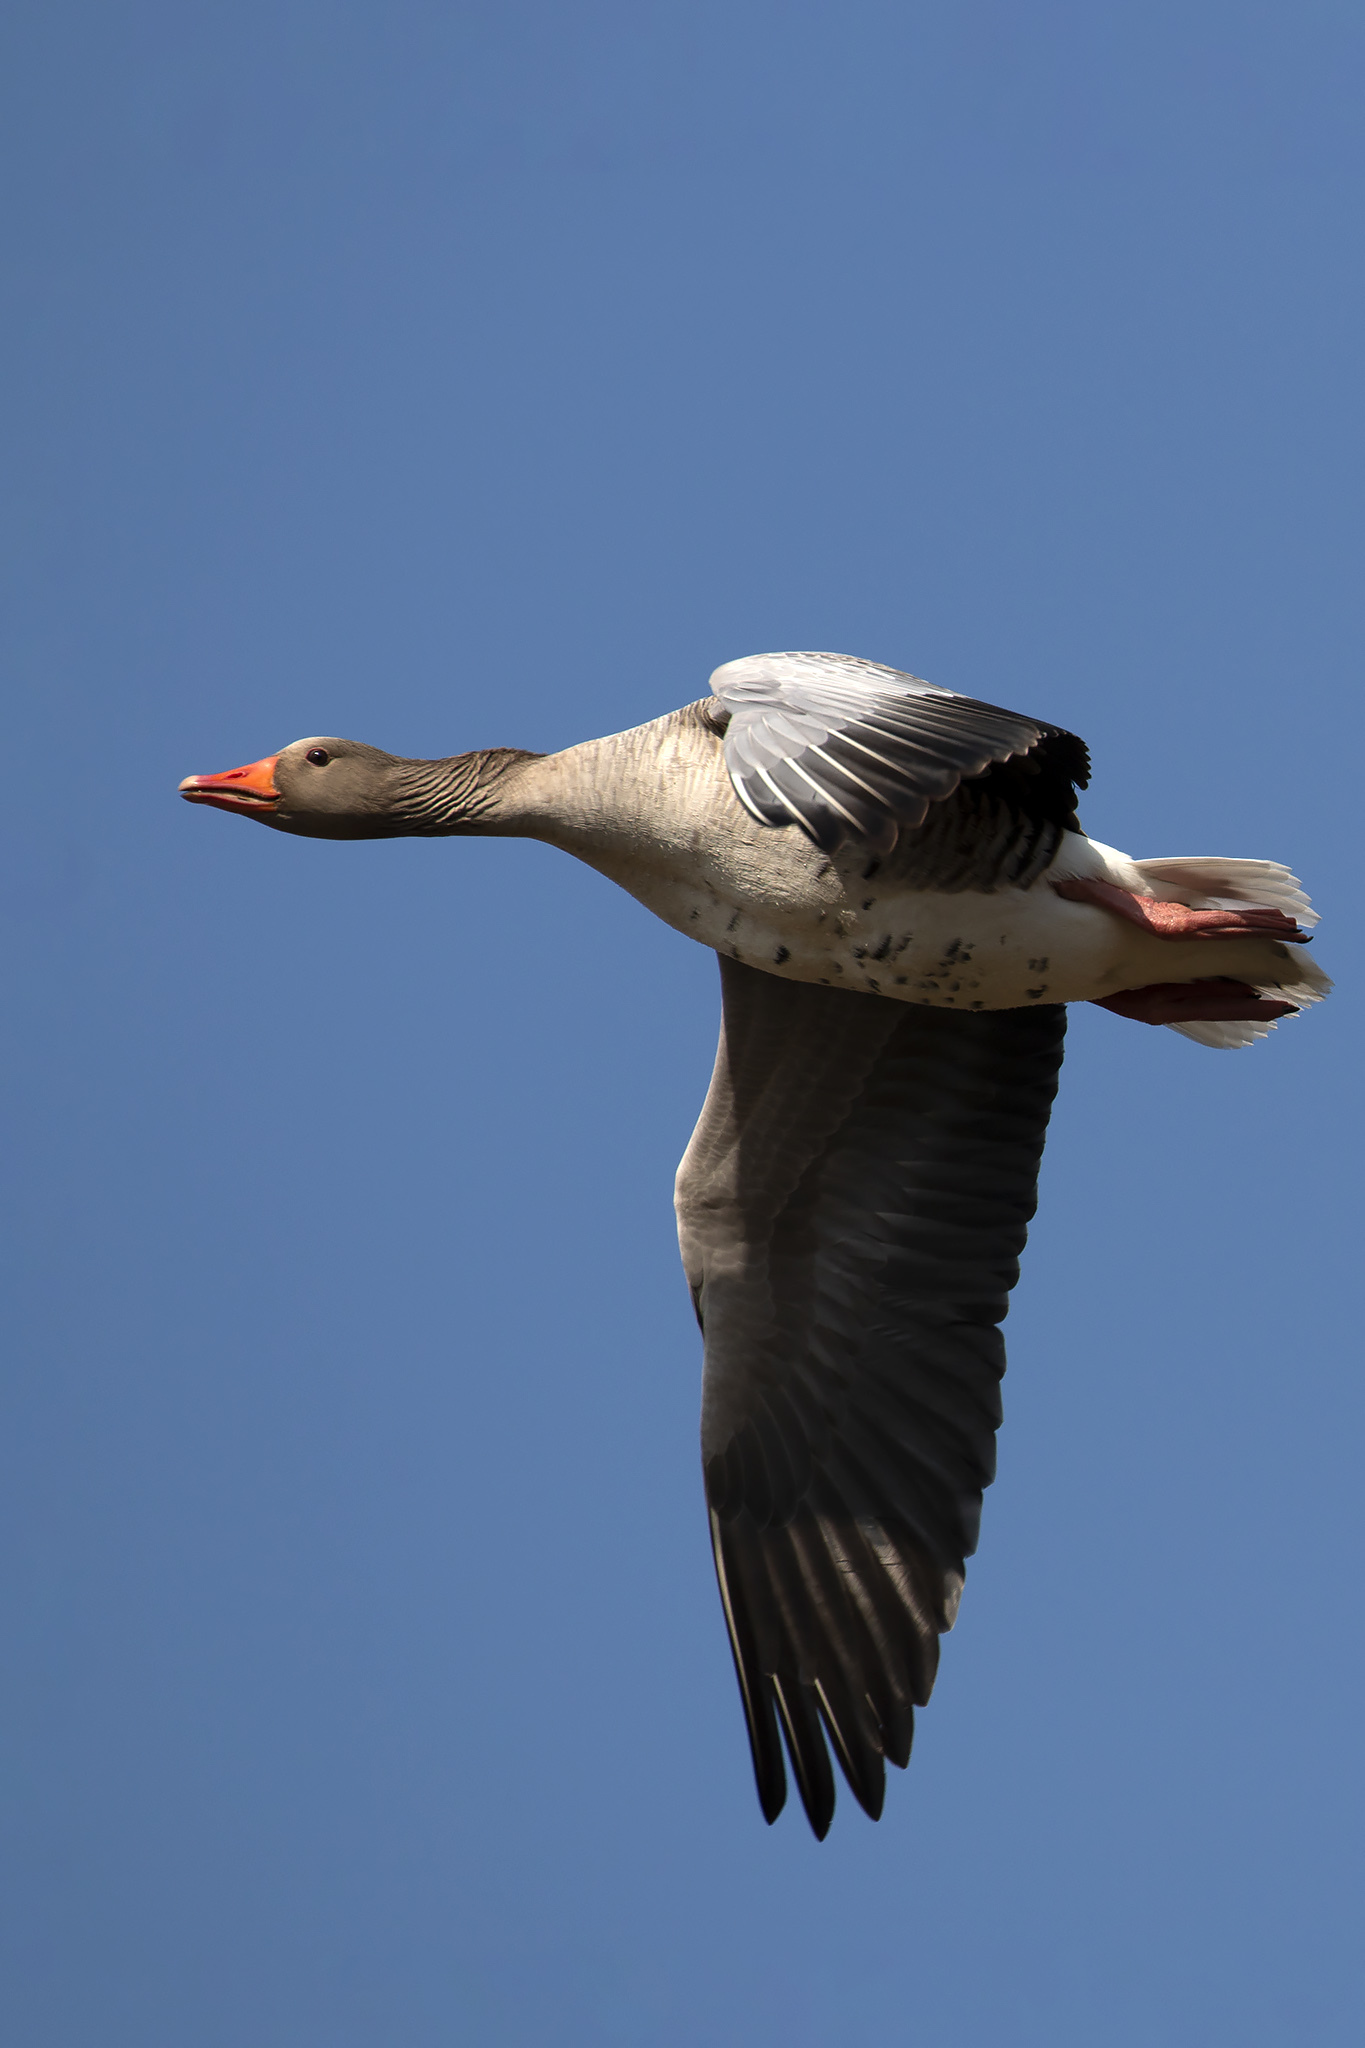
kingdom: Animalia
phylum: Chordata
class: Aves
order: Anseriformes
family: Anatidae
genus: Anser
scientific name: Anser anser
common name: Greylag goose
